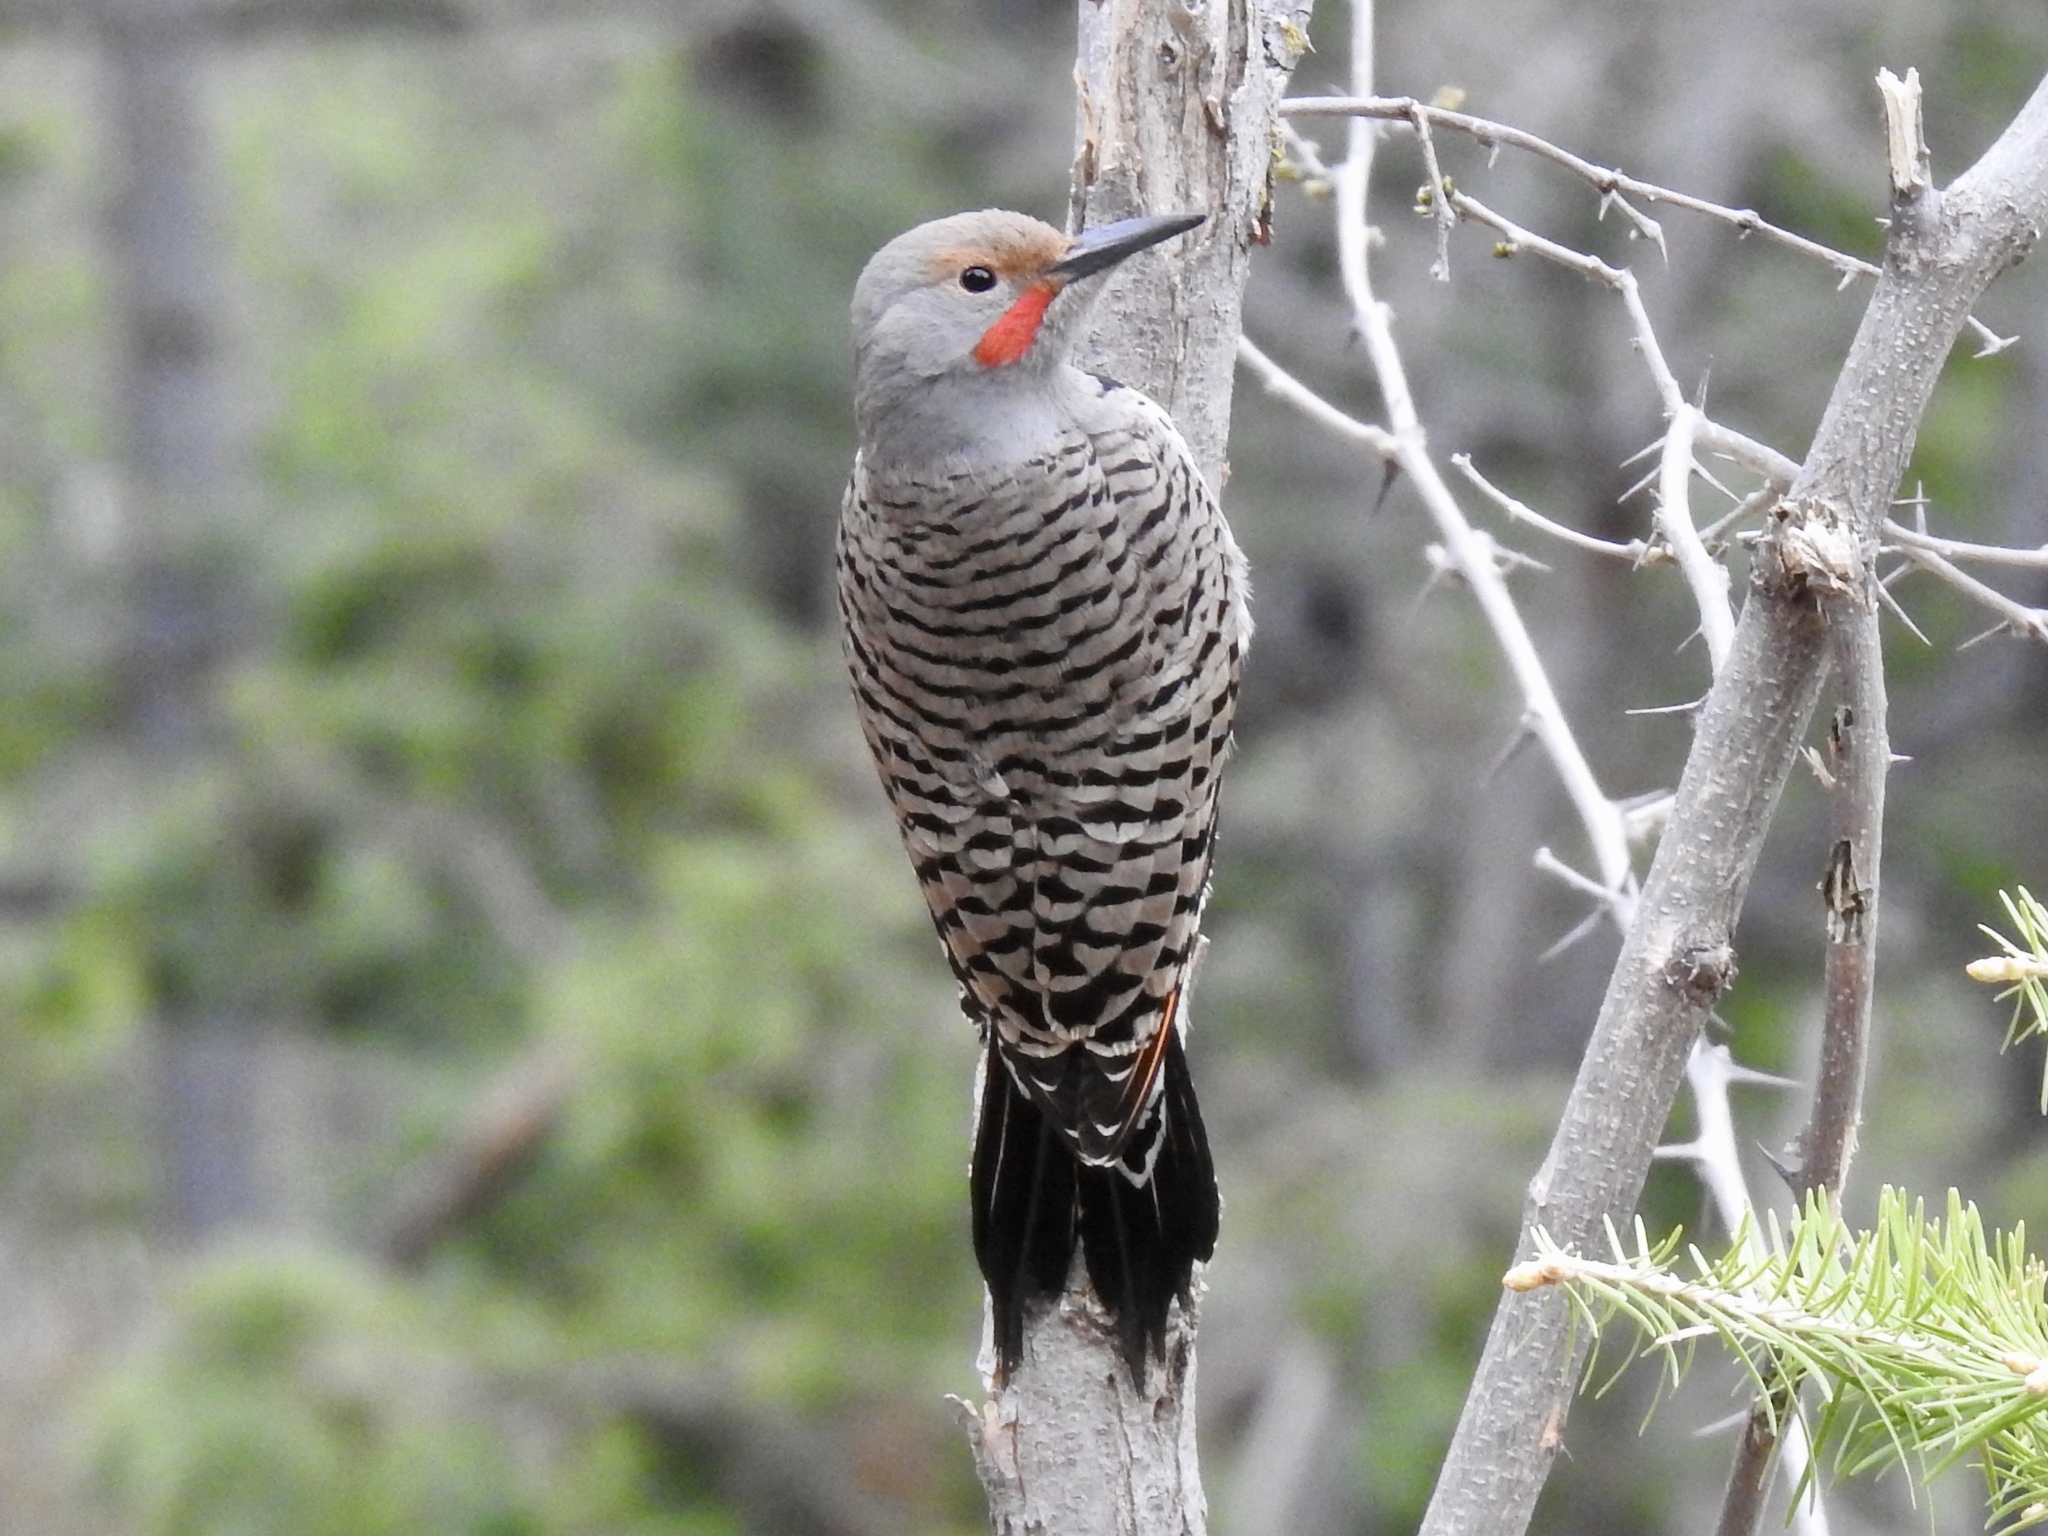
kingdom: Animalia
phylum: Chordata
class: Aves
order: Piciformes
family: Picidae
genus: Colaptes
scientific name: Colaptes auratus
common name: Northern flicker
